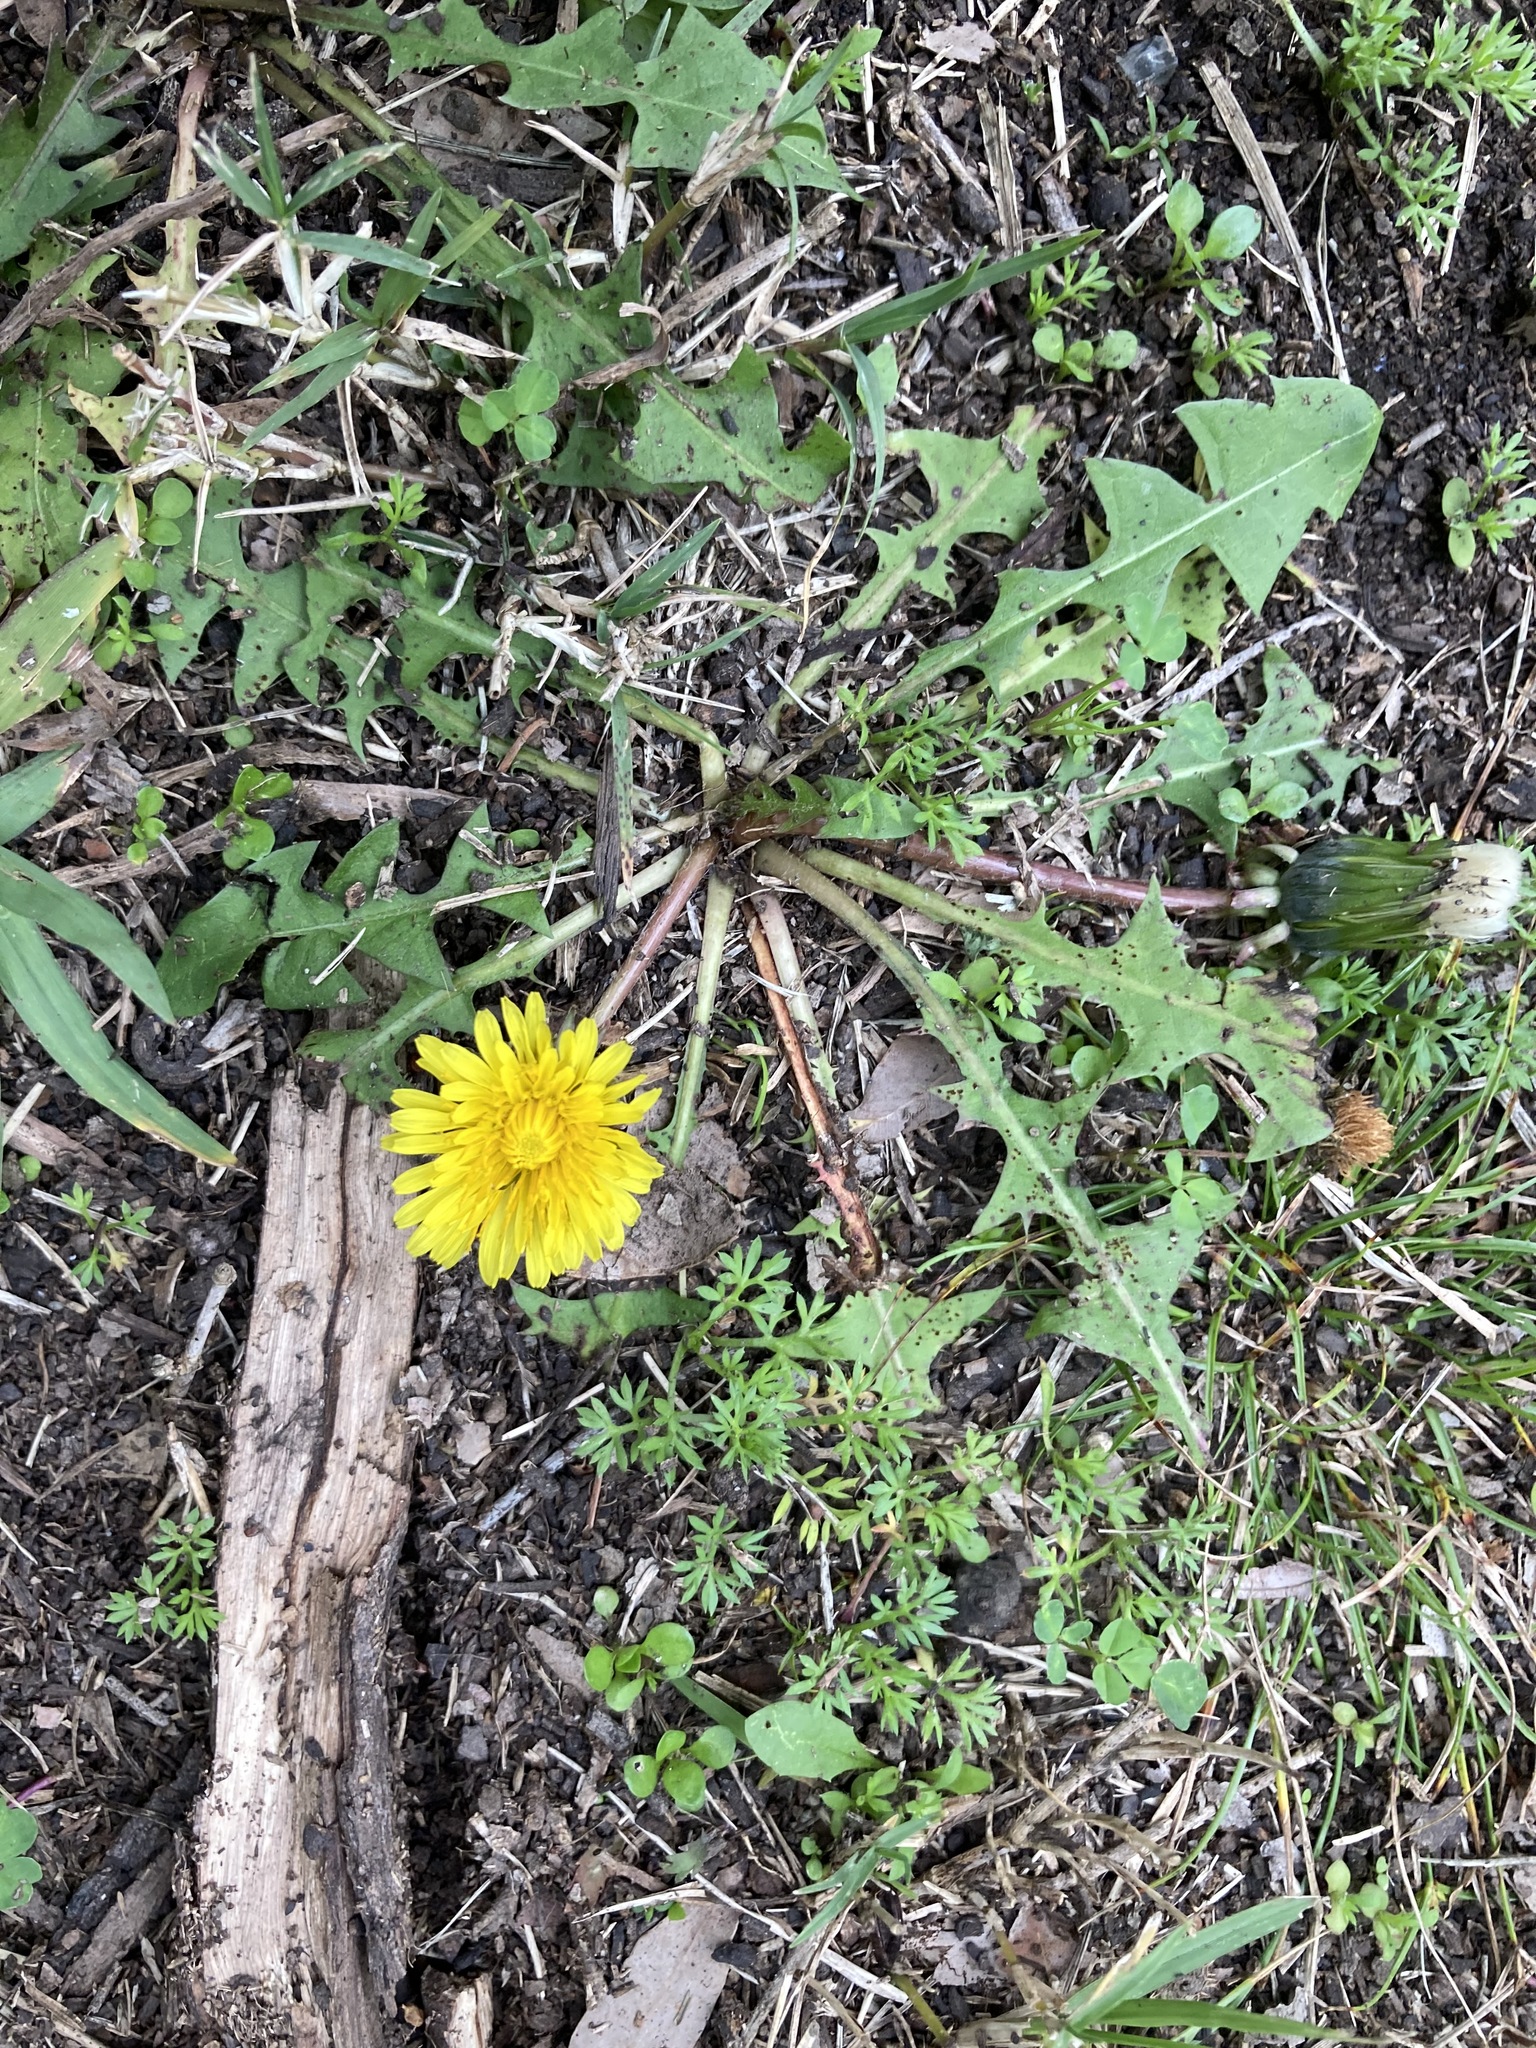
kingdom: Plantae
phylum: Tracheophyta
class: Magnoliopsida
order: Asterales
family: Asteraceae
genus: Taraxacum
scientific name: Taraxacum officinale
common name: Common dandelion
